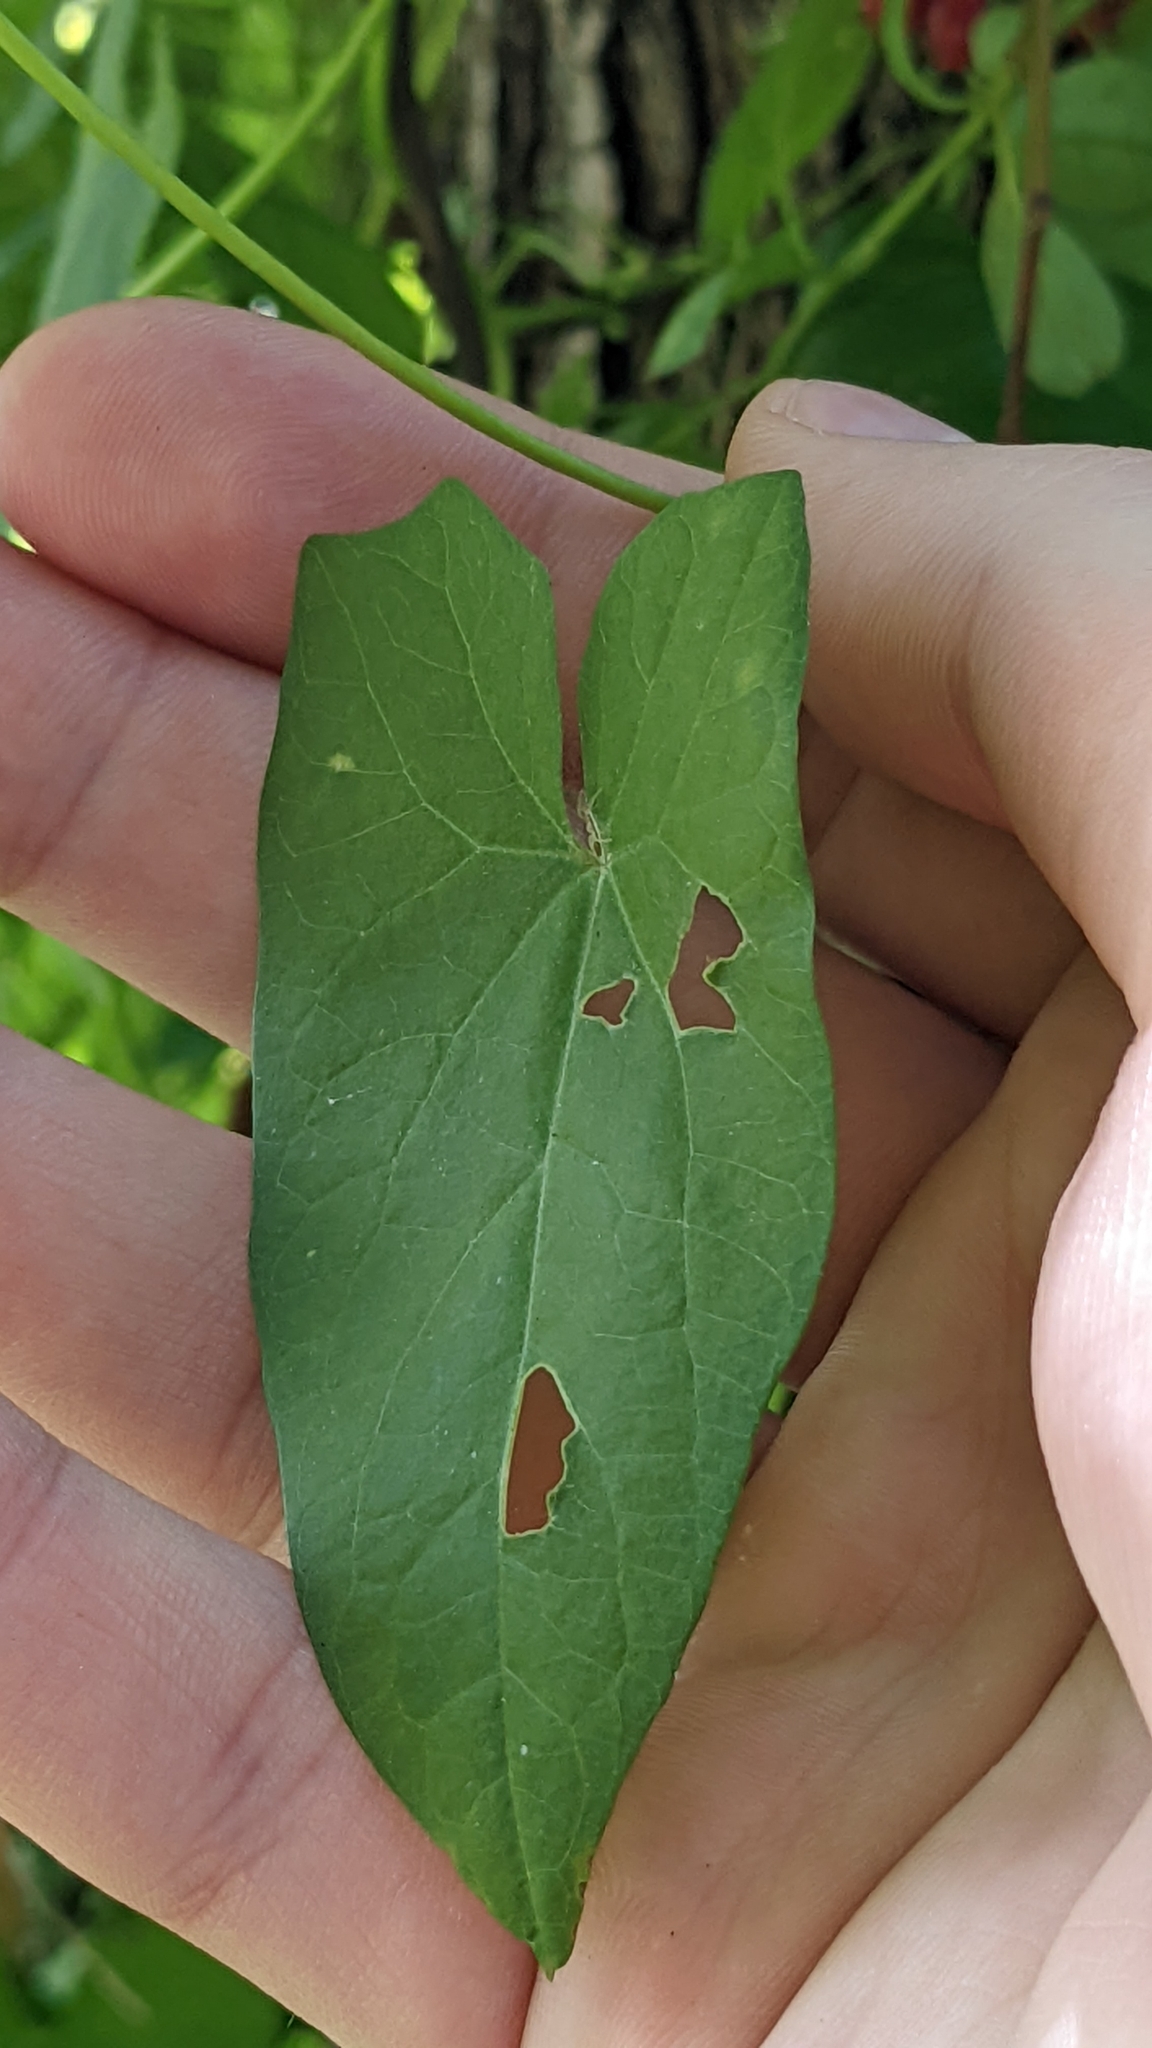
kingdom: Plantae
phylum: Tracheophyta
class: Magnoliopsida
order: Solanales
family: Solanaceae
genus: Solanum
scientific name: Solanum dulcamara
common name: Climbing nightshade
